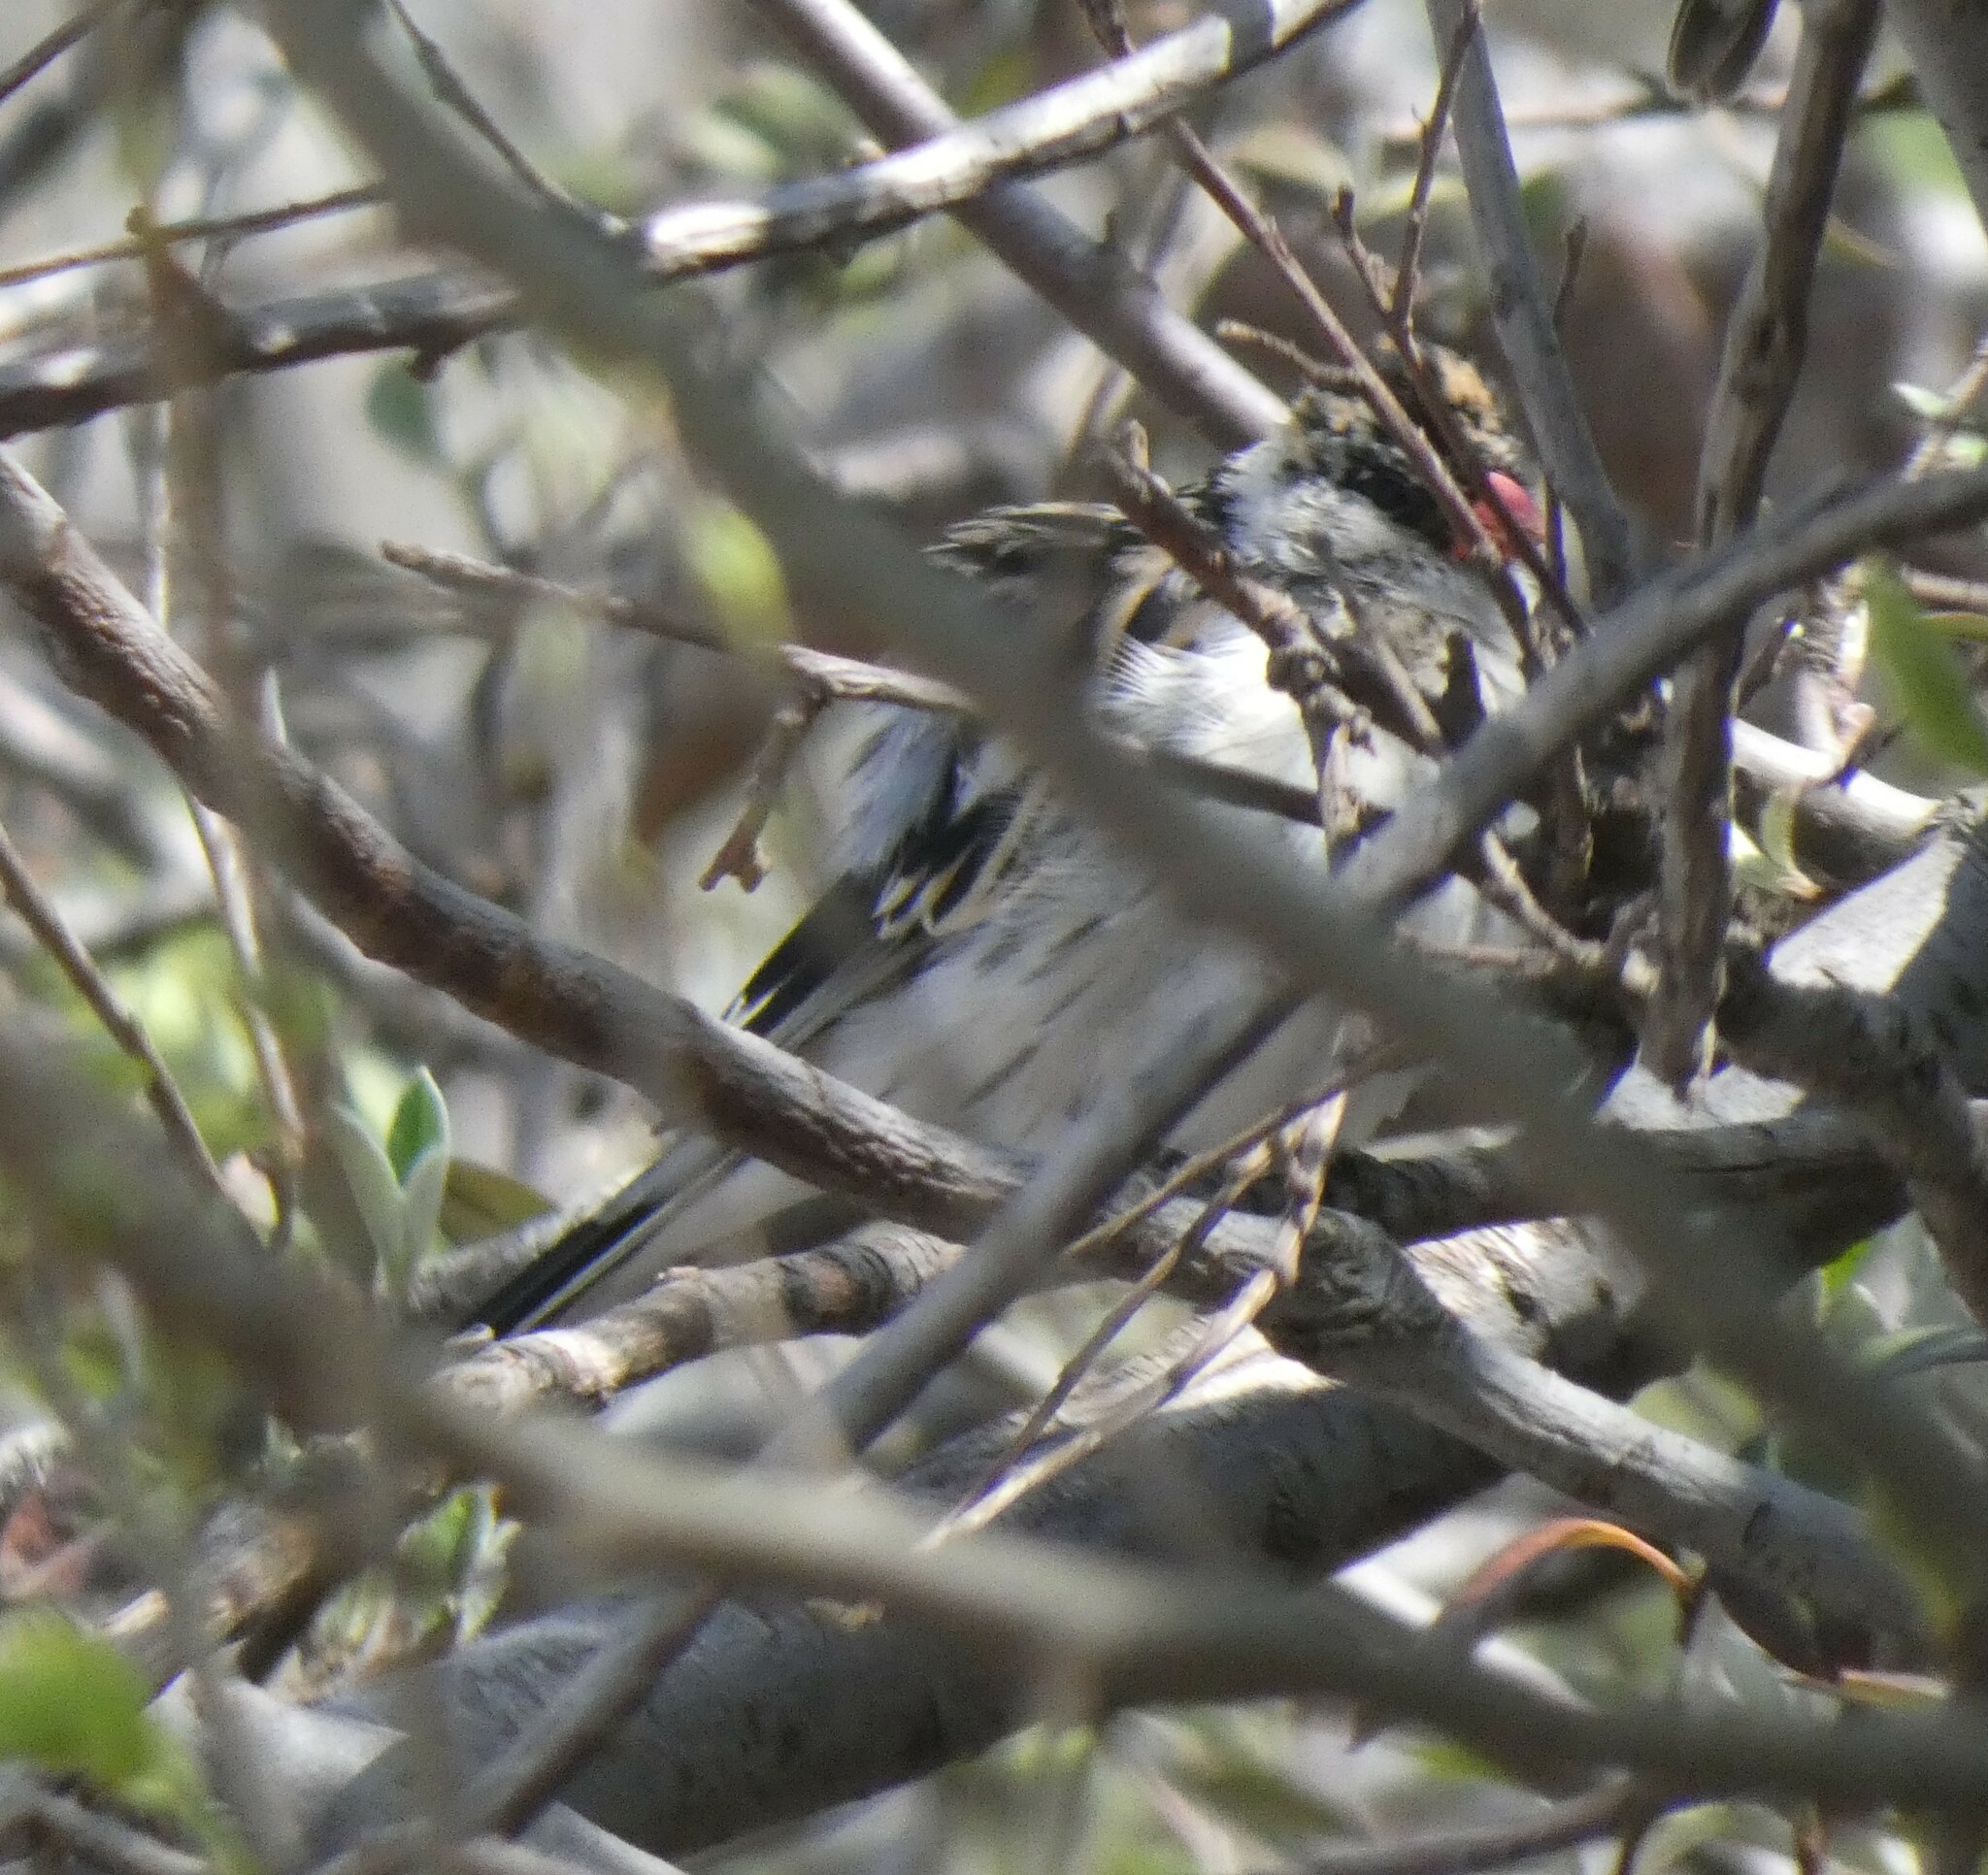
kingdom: Animalia
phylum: Chordata
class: Aves
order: Passeriformes
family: Viduidae
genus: Vidua
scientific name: Vidua macroura
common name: Pin-tailed whydah
